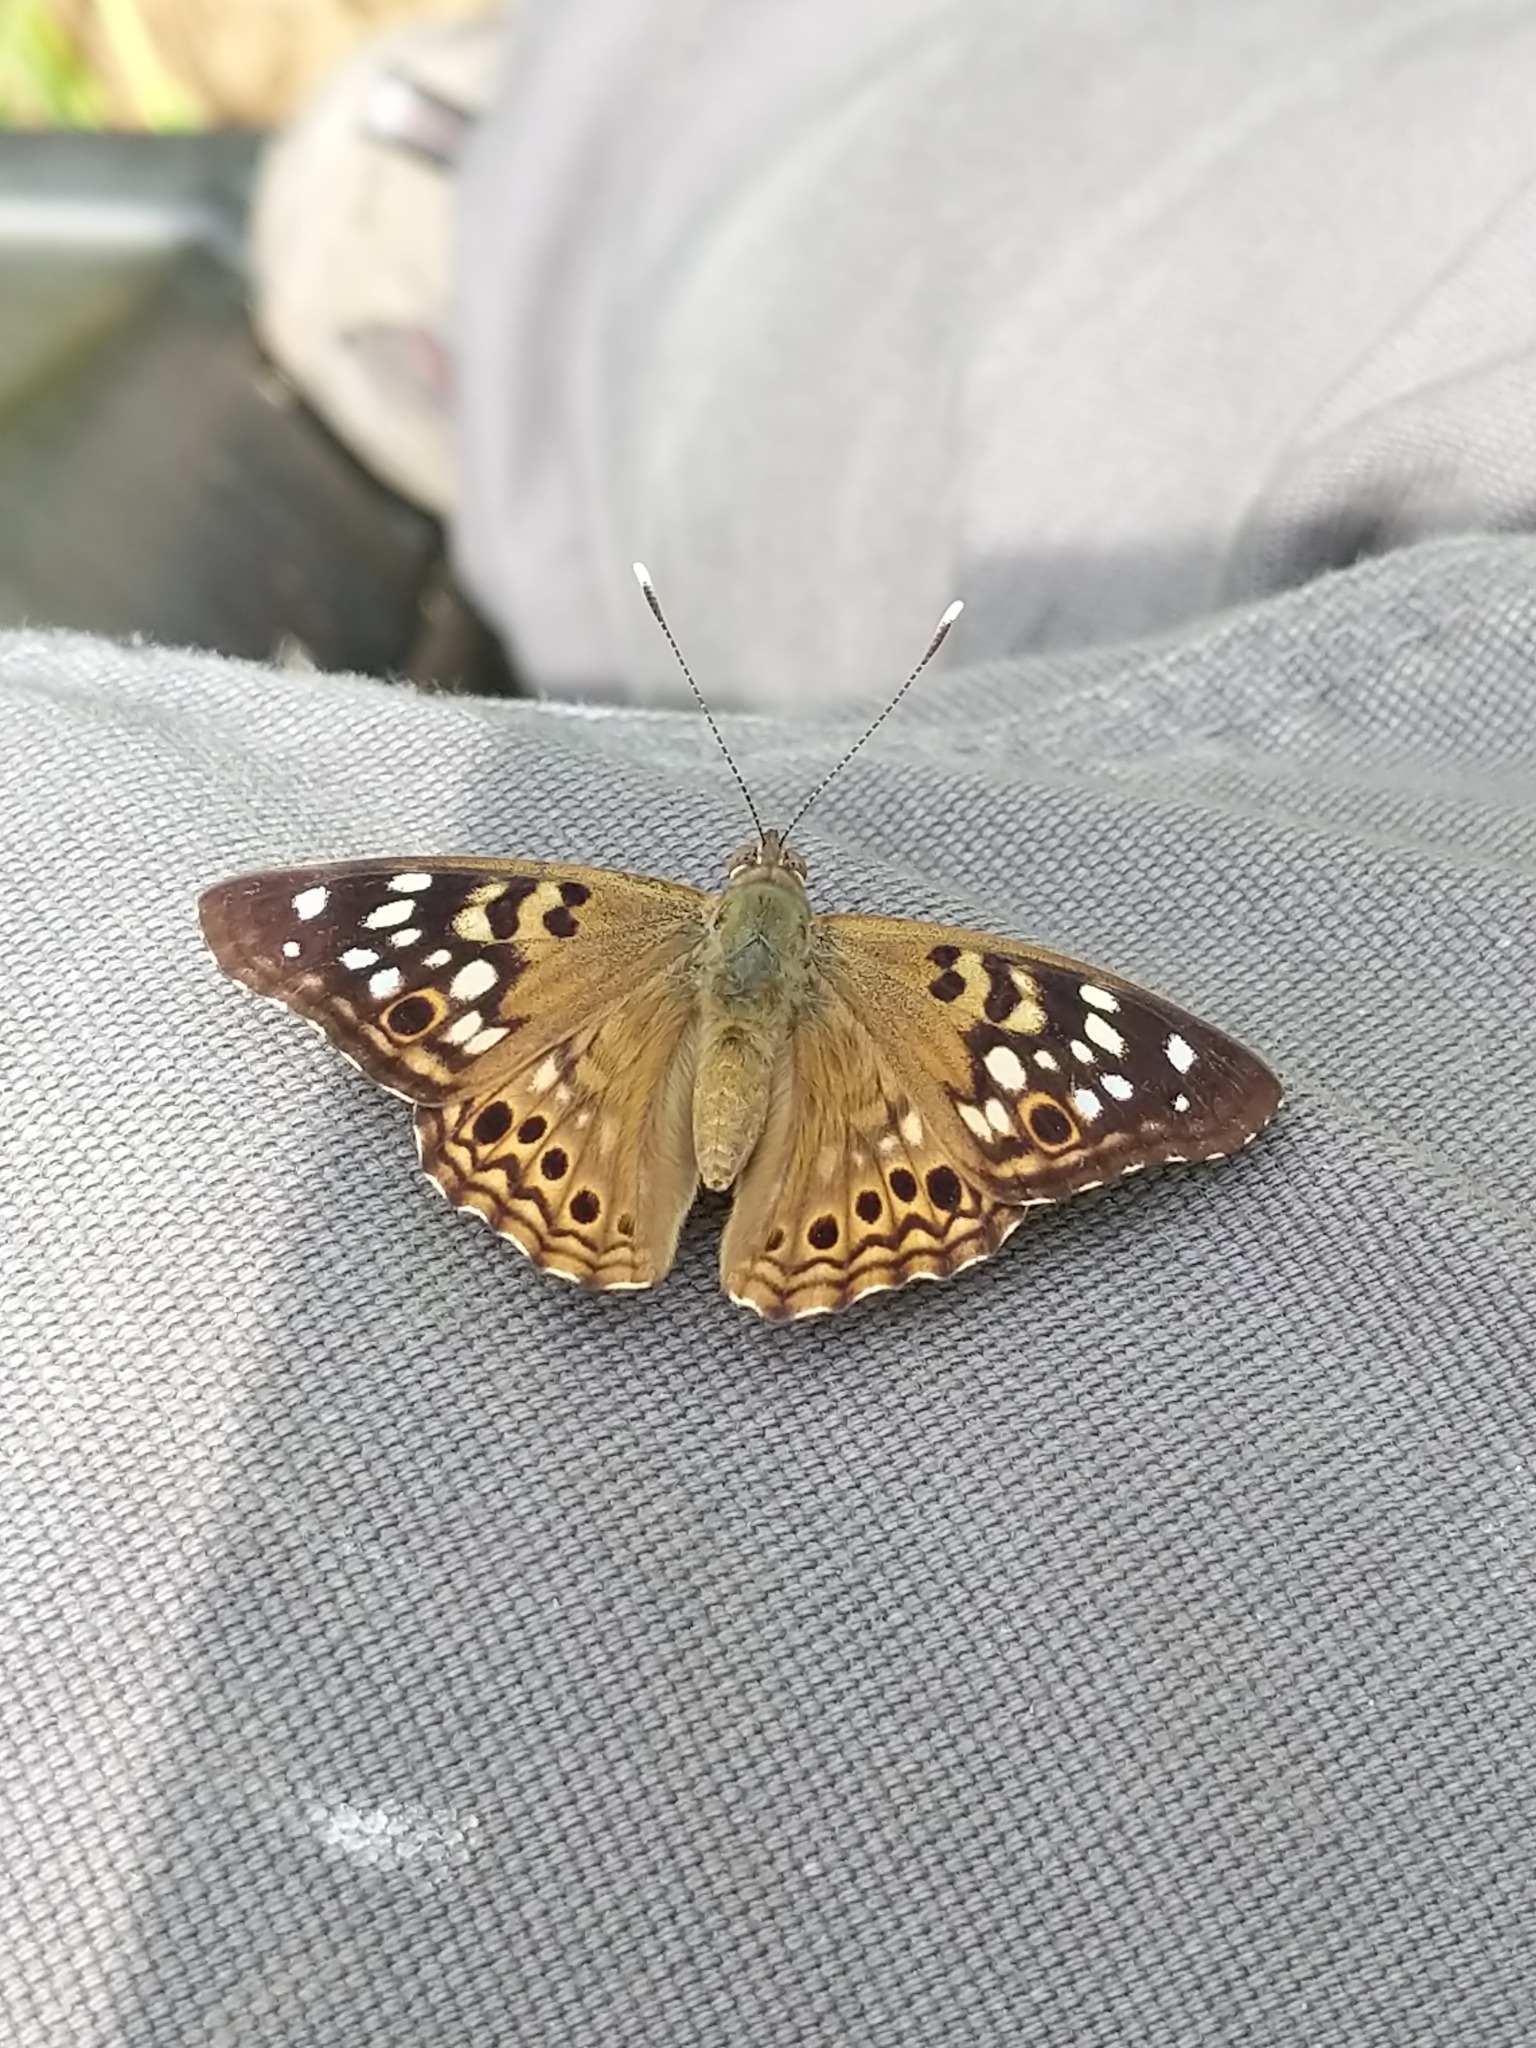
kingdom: Animalia
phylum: Arthropoda
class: Insecta
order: Lepidoptera
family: Nymphalidae
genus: Asterocampa
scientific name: Asterocampa celtis
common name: Hackberry emperor
